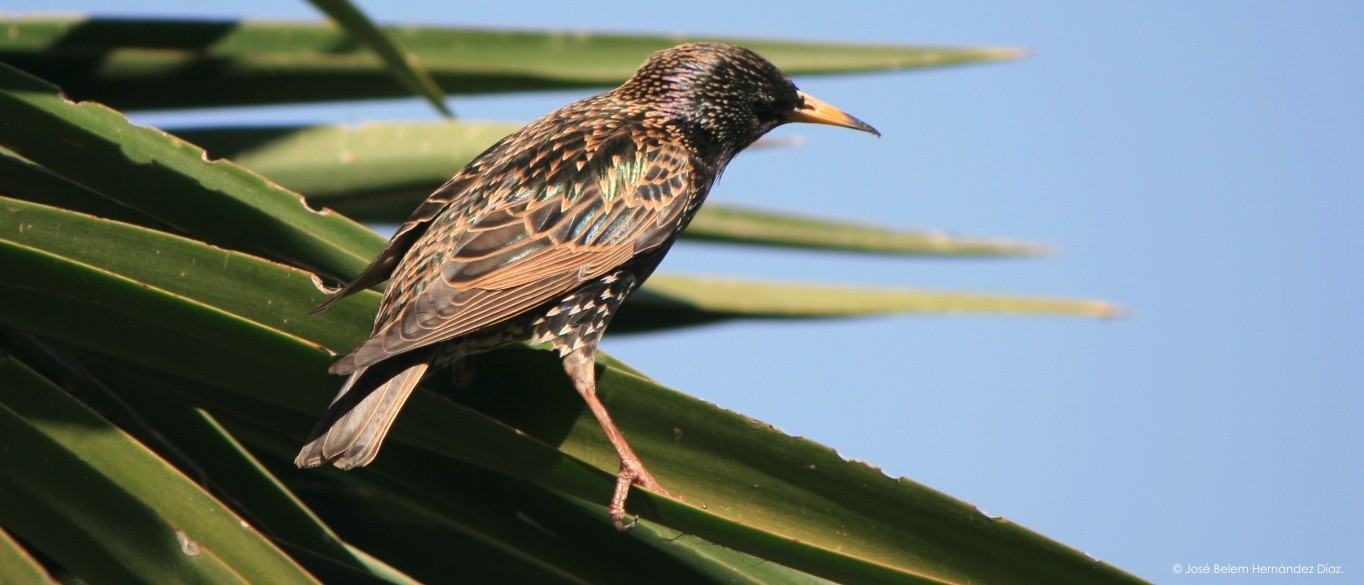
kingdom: Animalia
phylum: Chordata
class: Aves
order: Passeriformes
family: Sturnidae
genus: Sturnus
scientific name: Sturnus vulgaris
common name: Common starling
